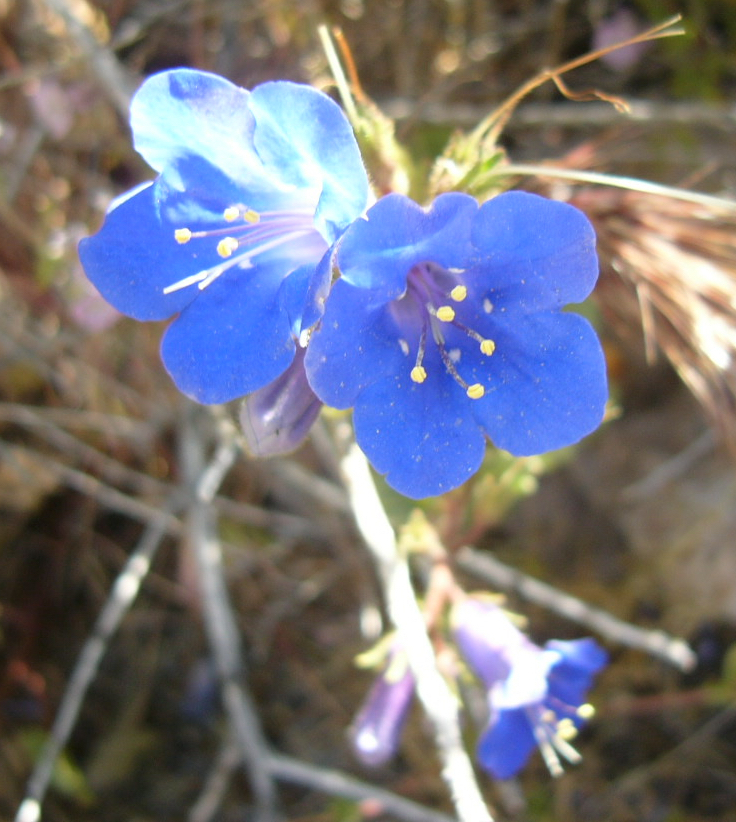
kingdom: Plantae
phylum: Tracheophyta
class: Magnoliopsida
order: Boraginales
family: Hydrophyllaceae
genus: Phacelia
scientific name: Phacelia campanularia
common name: California bluebell
